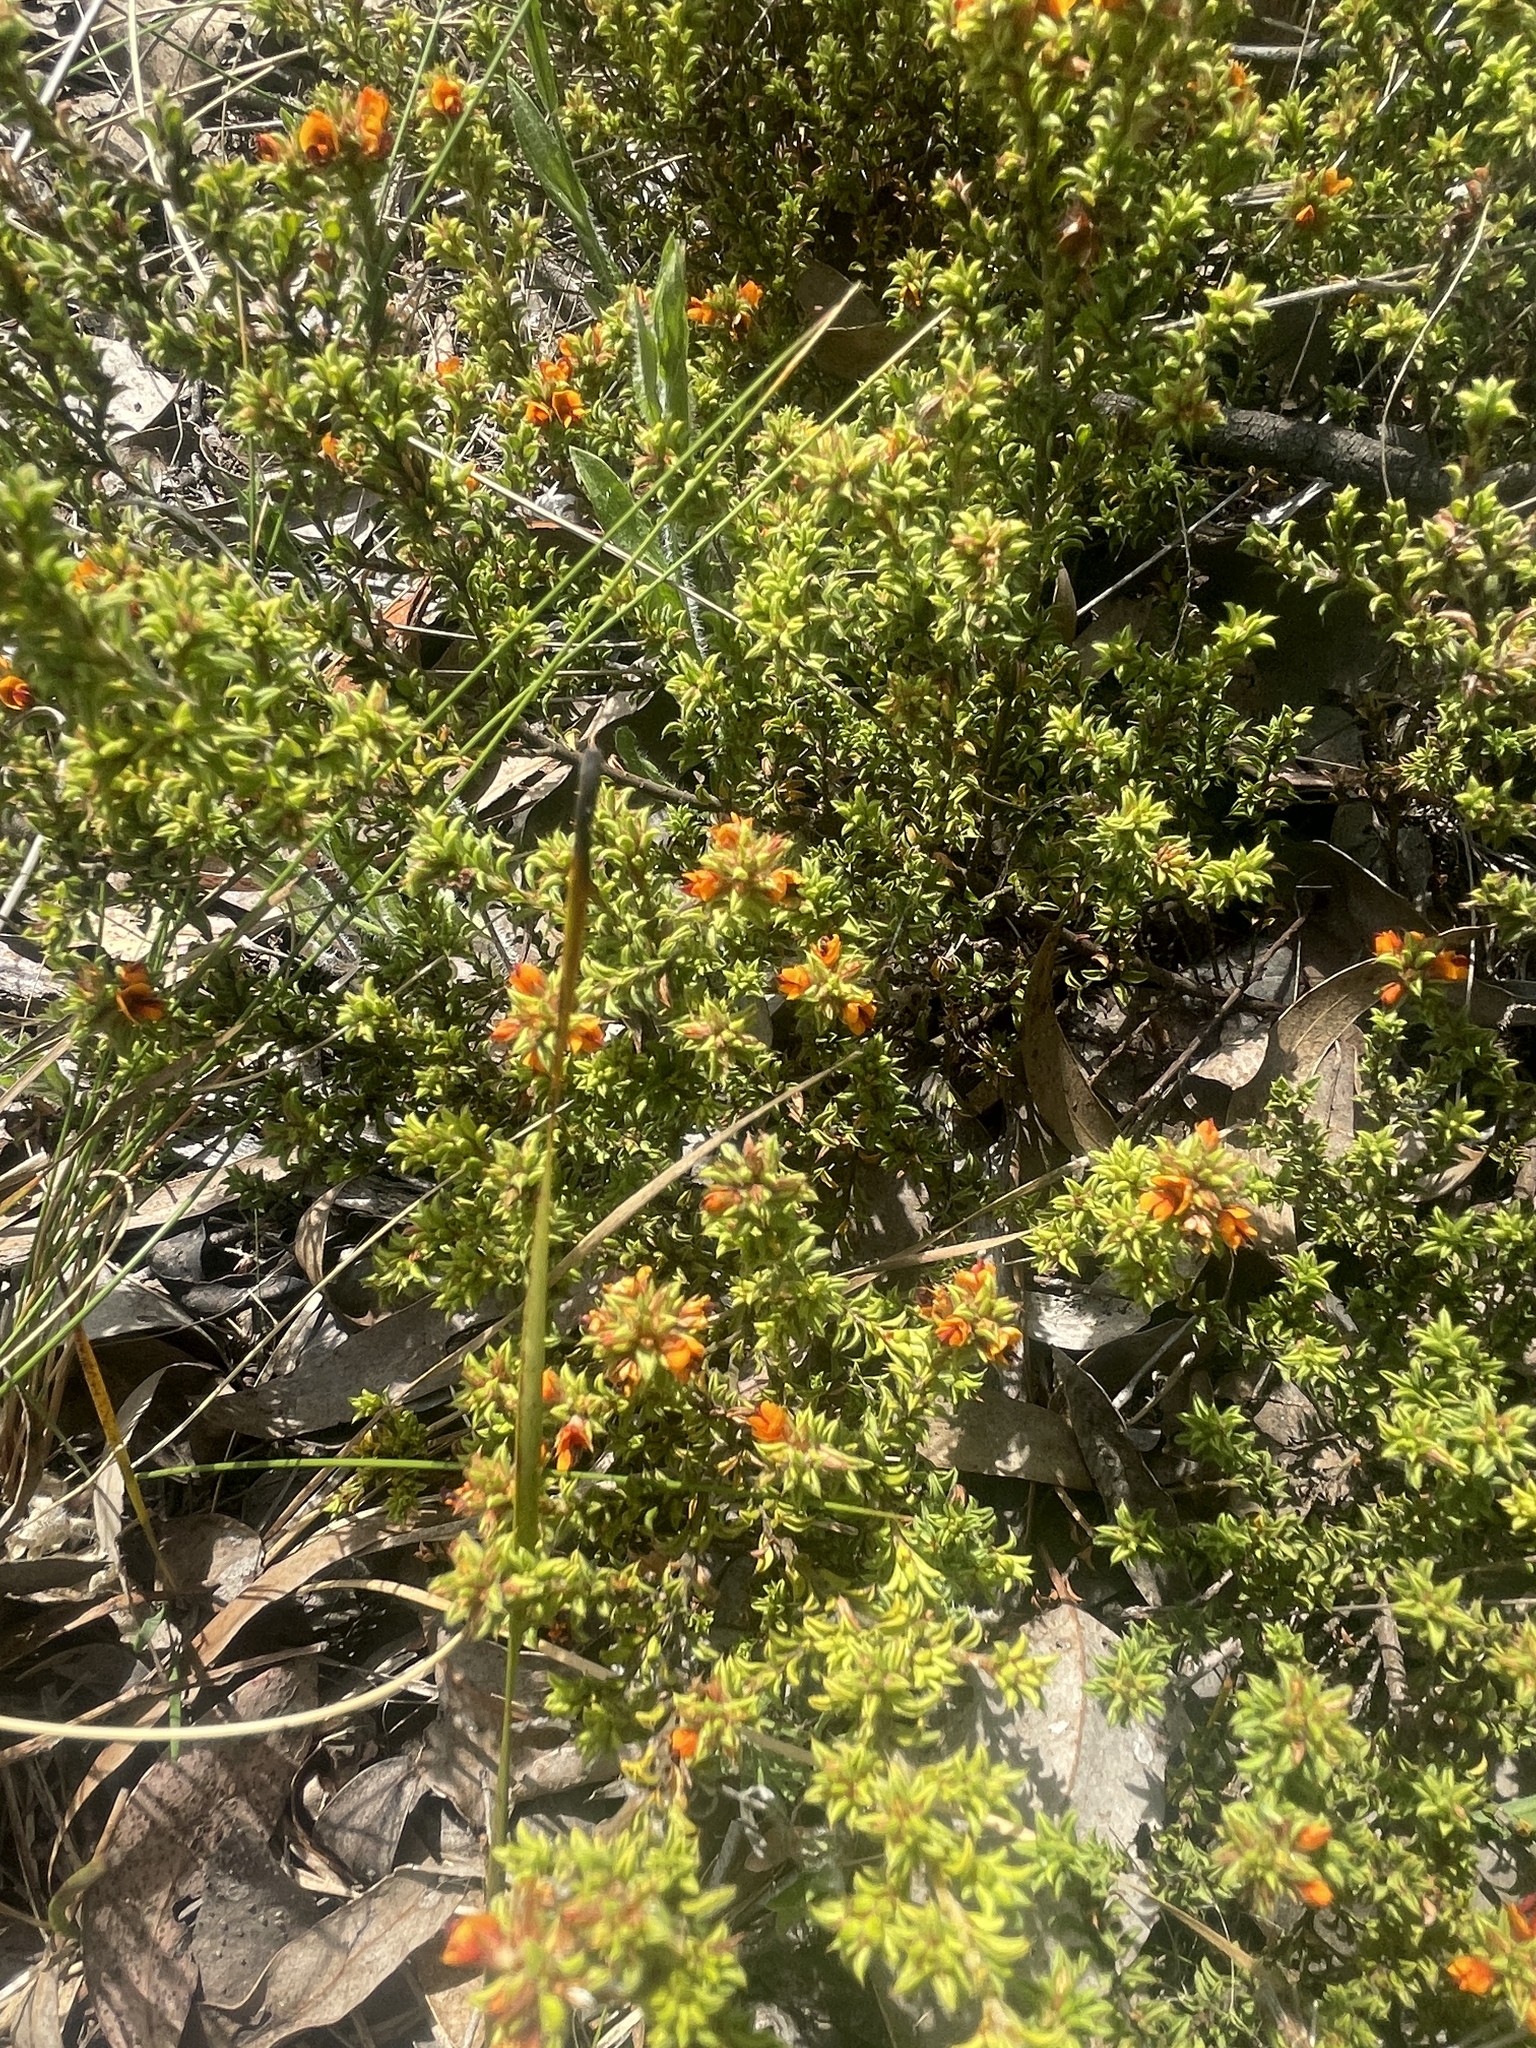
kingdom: Plantae
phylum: Tracheophyta
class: Magnoliopsida
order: Fabales
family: Fabaceae
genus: Pultenaea
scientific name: Pultenaea procumbens
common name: Heathy bush-pea
